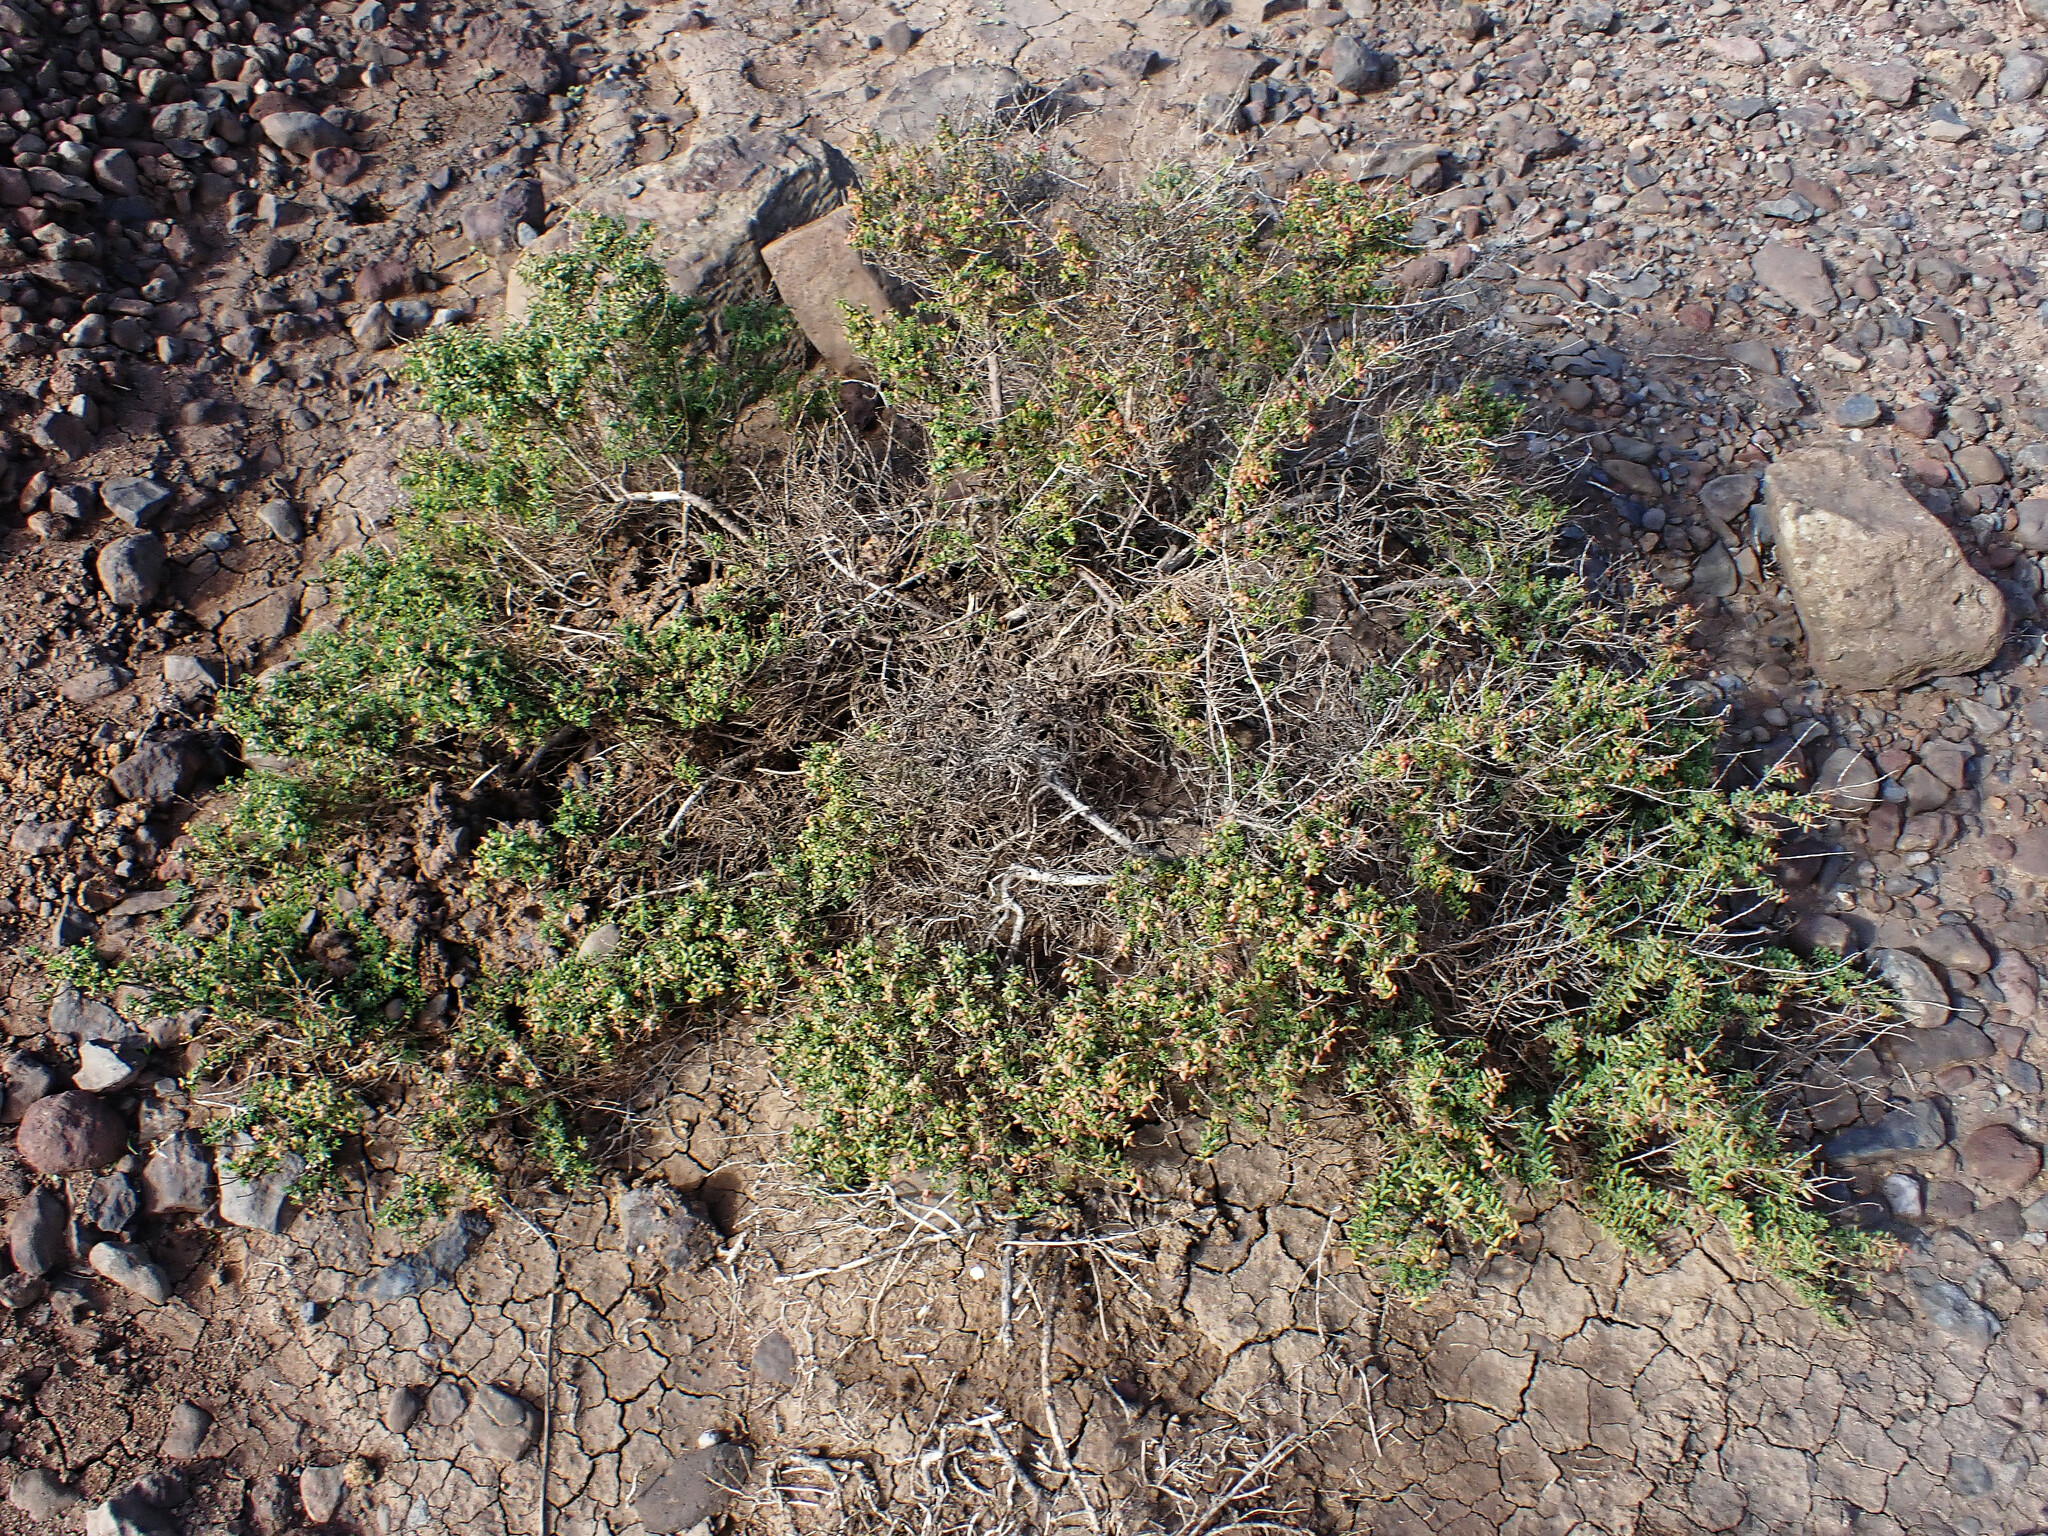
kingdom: Plantae
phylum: Tracheophyta
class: Magnoliopsida
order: Caryophyllales
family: Amaranthaceae
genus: Suaeda
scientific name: Suaeda vera
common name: Shrubby sea-blite
